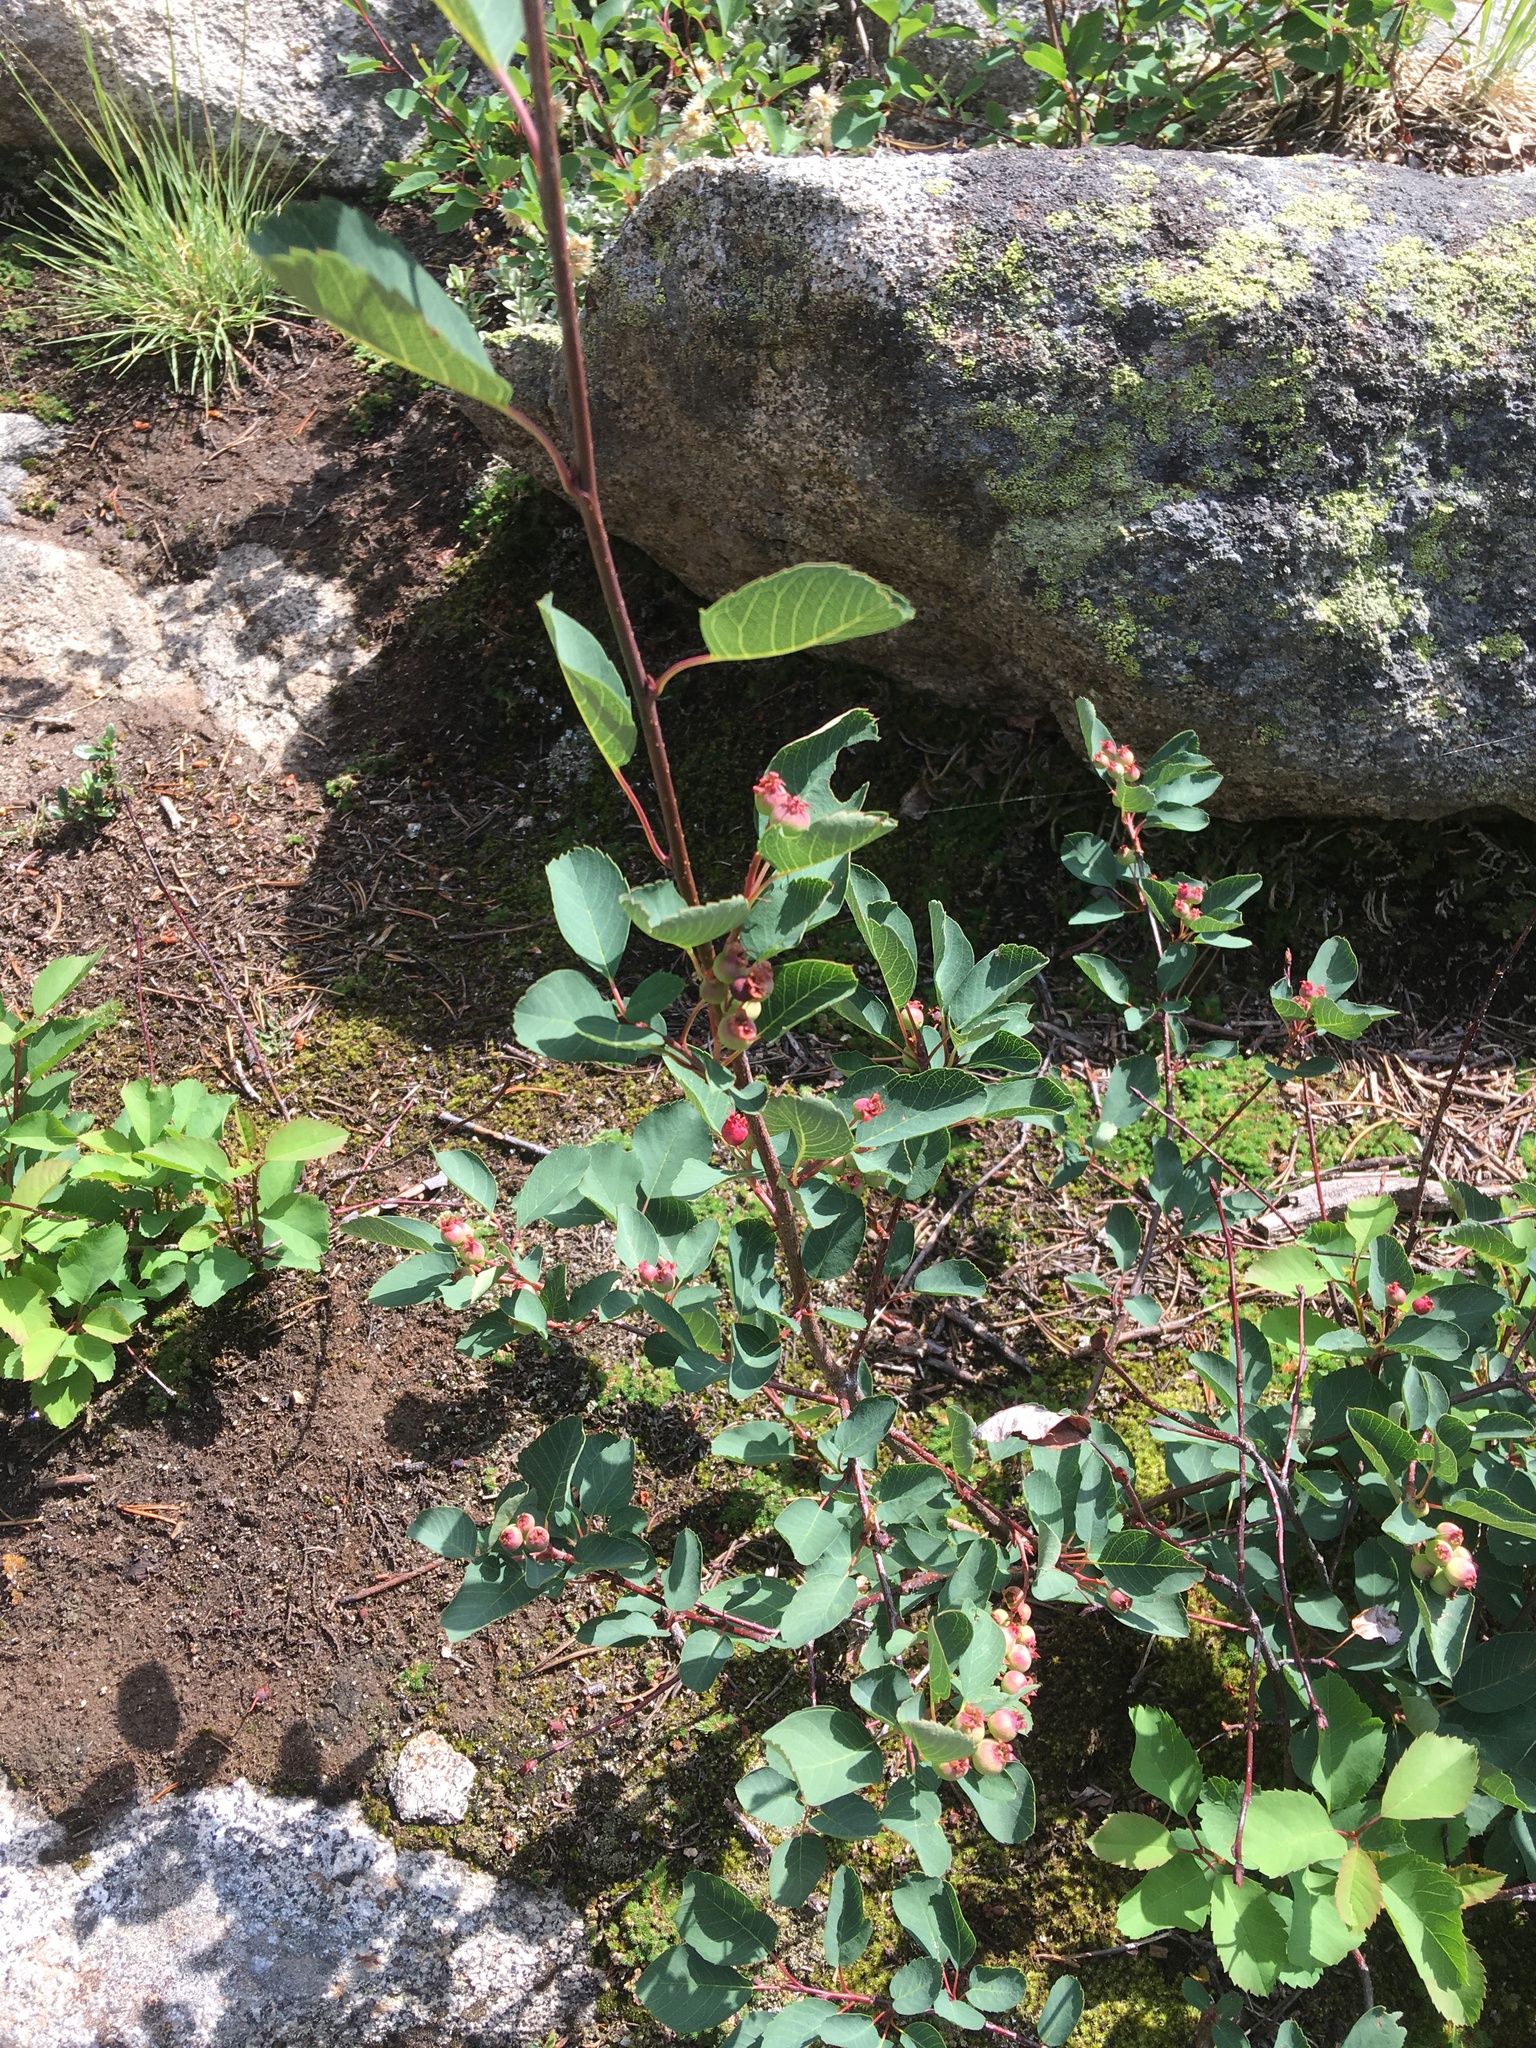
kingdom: Plantae
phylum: Tracheophyta
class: Magnoliopsida
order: Rosales
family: Rosaceae
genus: Amelanchier
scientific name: Amelanchier alnifolia
